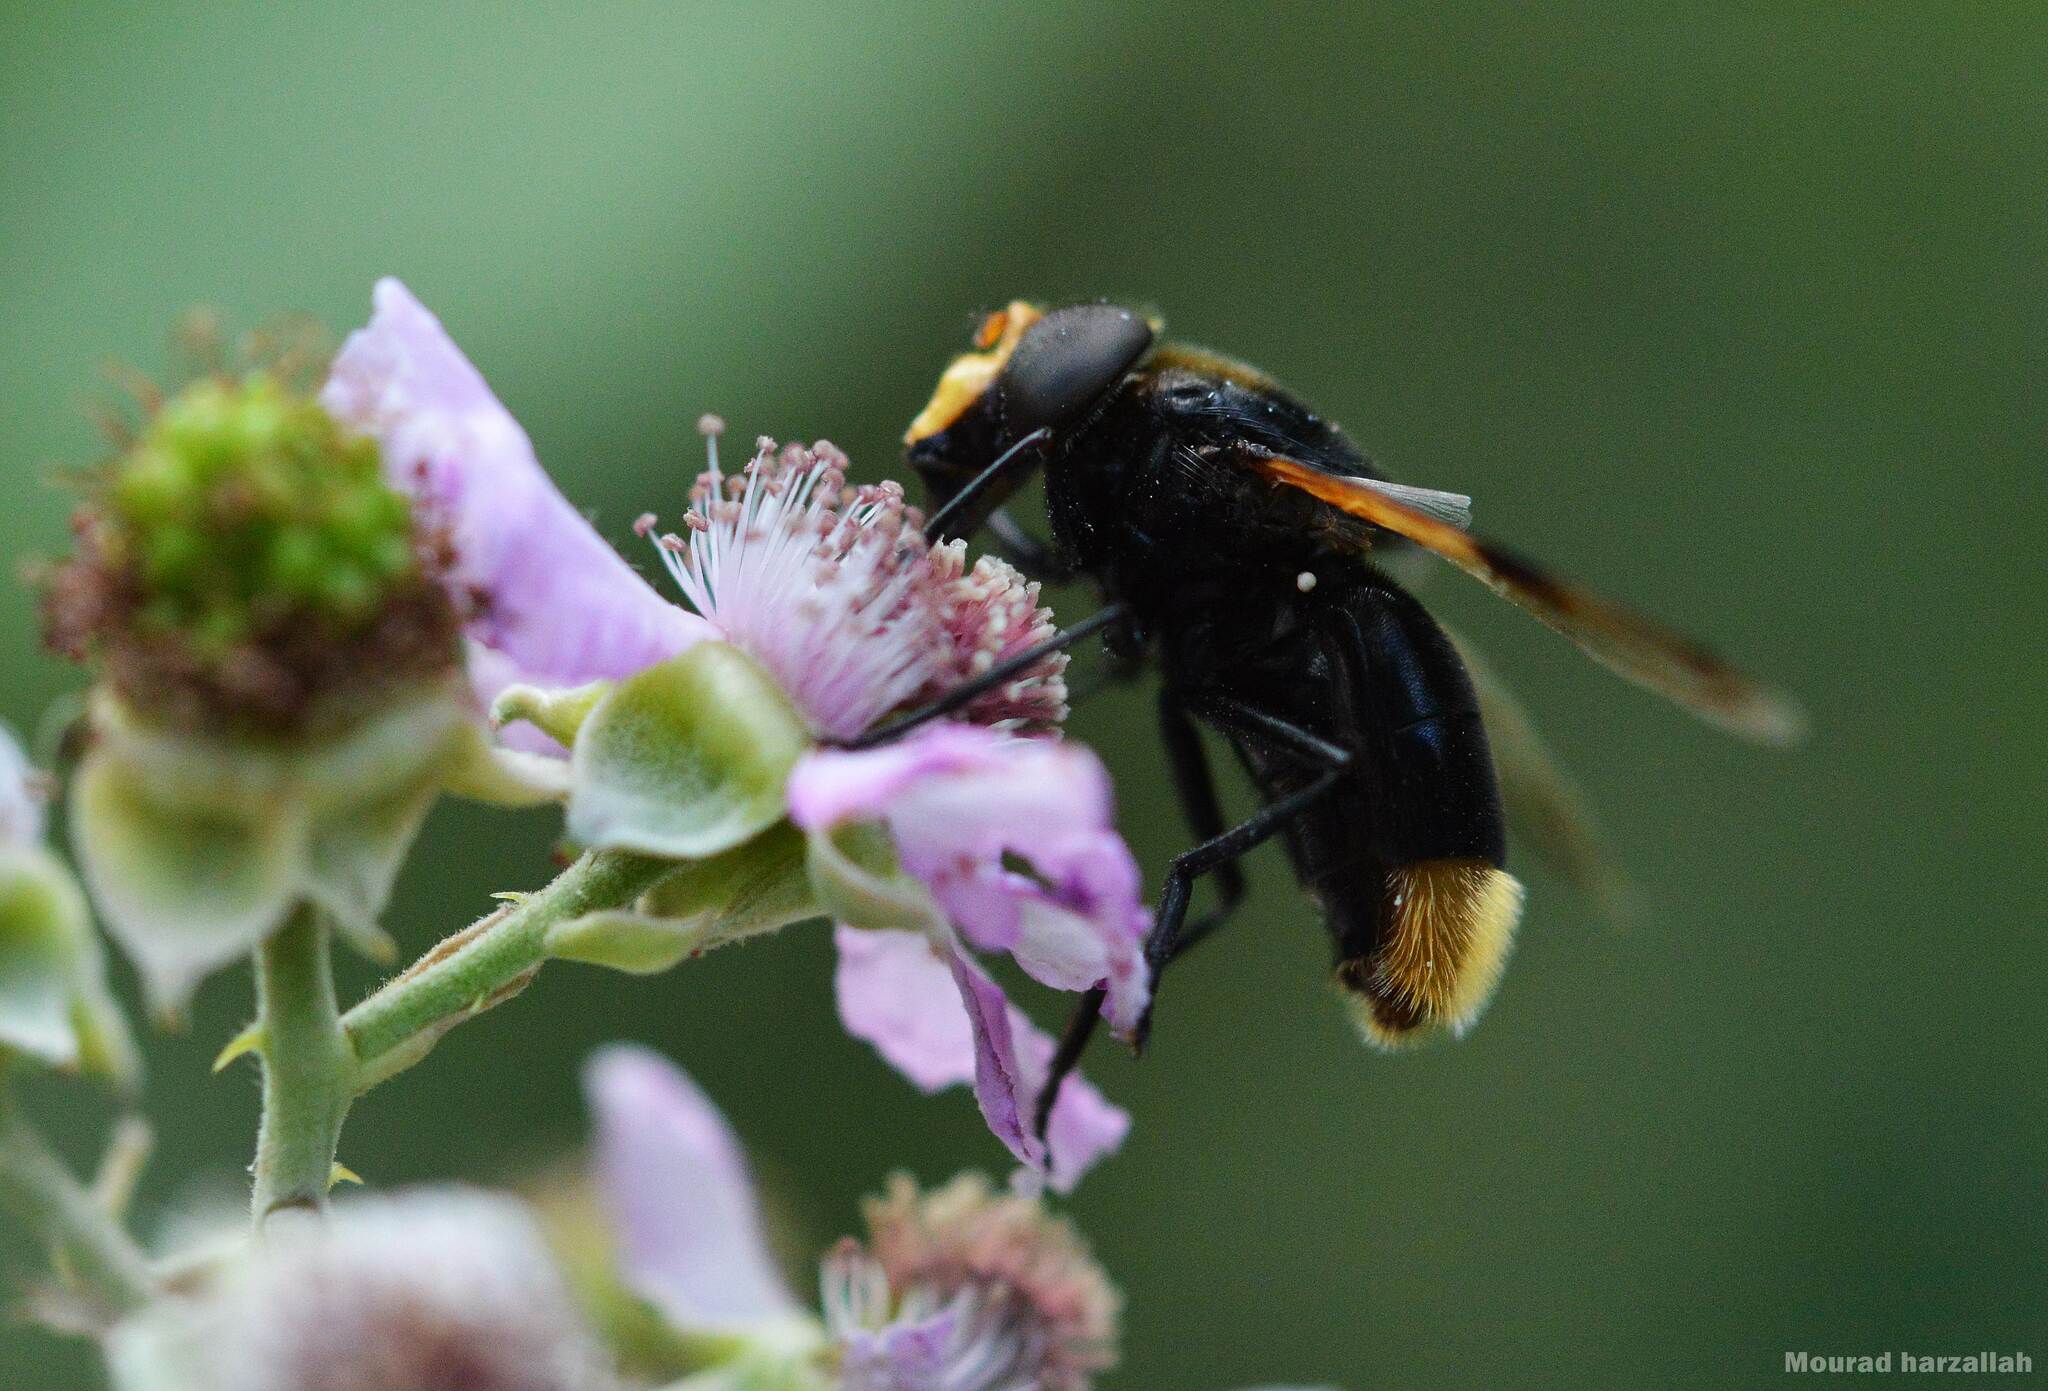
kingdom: Animalia
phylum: Arthropoda
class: Insecta
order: Diptera
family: Syrphidae
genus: Volucella
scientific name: Volucella liquida
